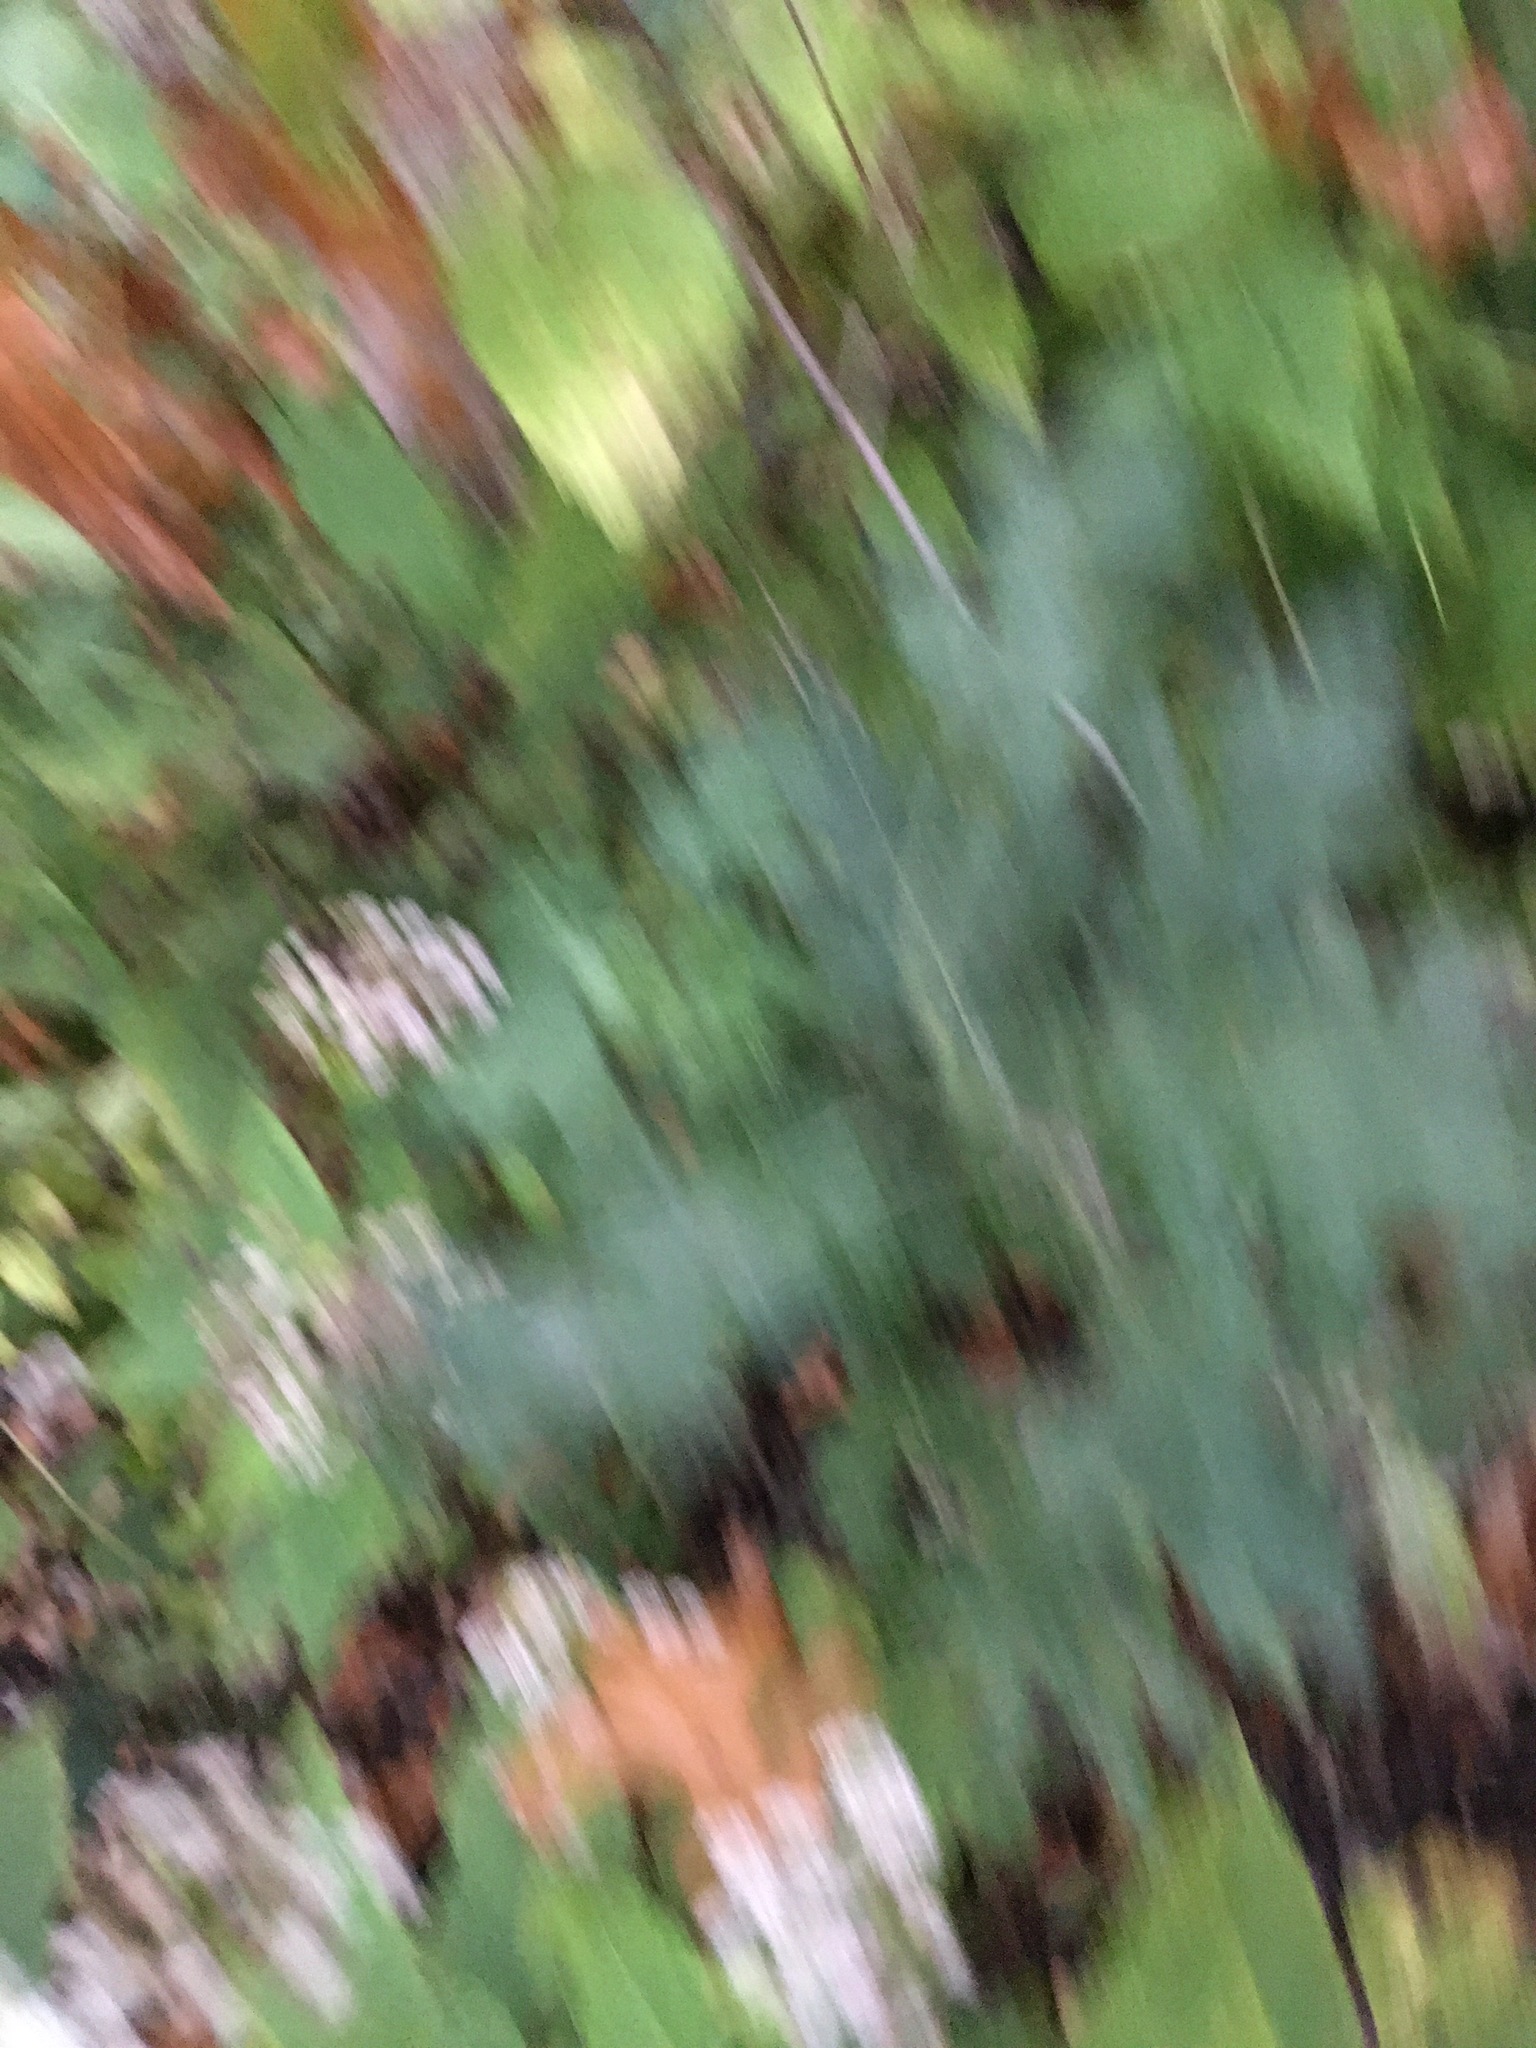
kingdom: Plantae
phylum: Tracheophyta
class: Magnoliopsida
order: Asterales
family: Asteraceae
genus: Artemisia
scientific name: Artemisia vulgaris
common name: Mugwort
